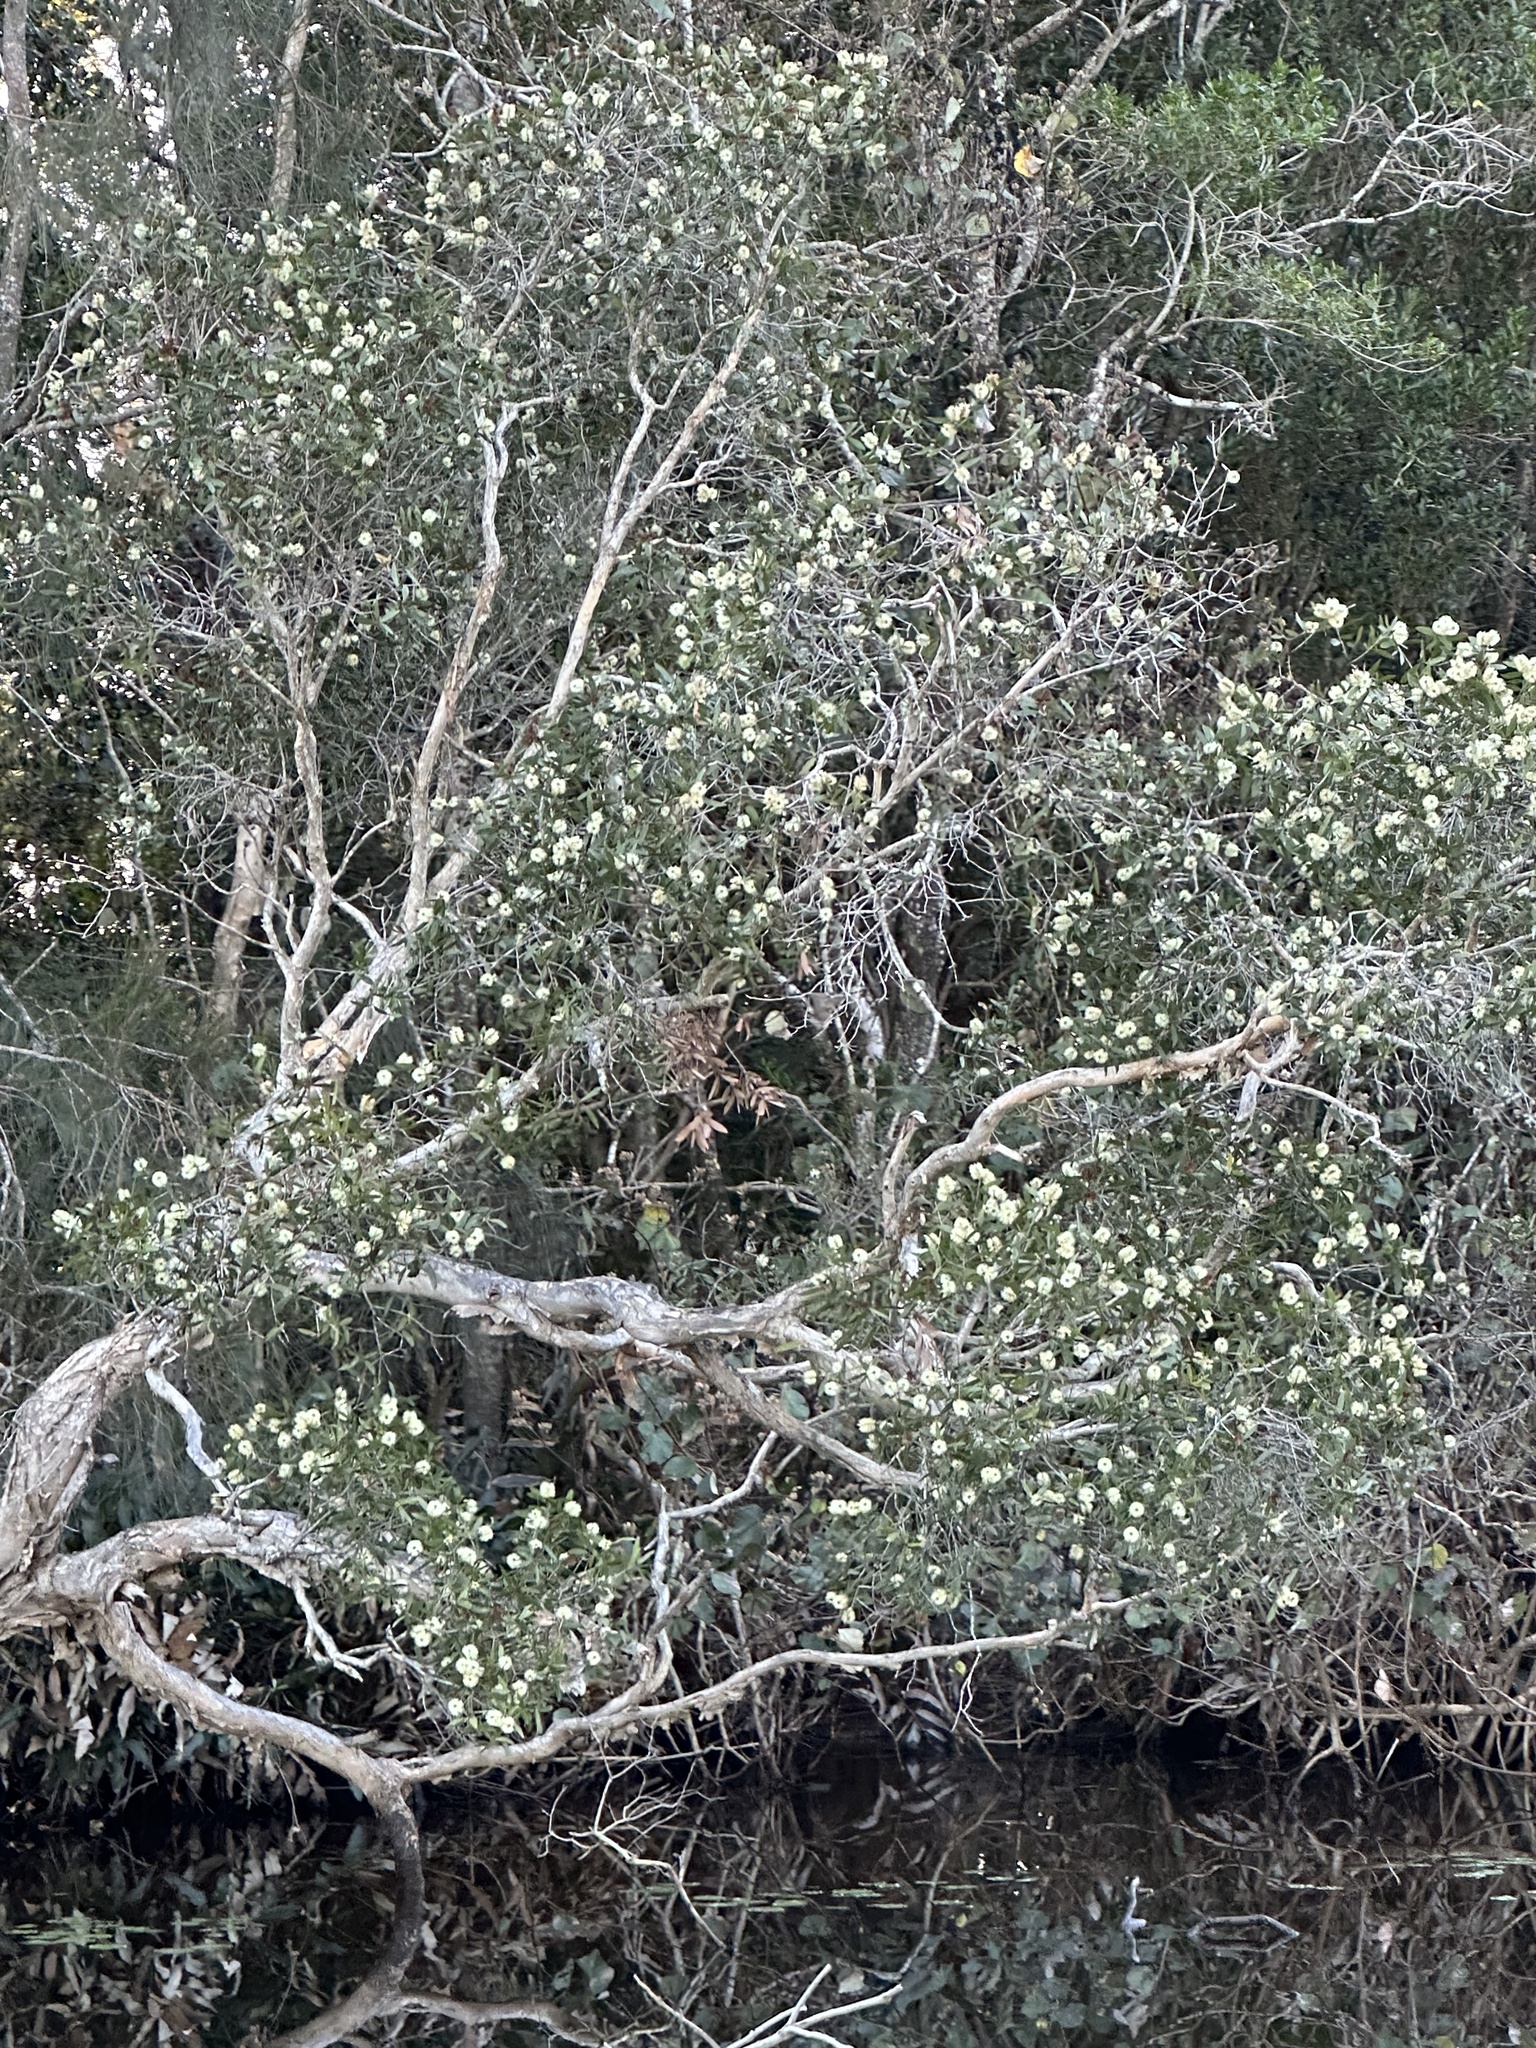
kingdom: Plantae
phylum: Tracheophyta
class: Magnoliopsida
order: Myrtales
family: Myrtaceae
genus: Melaleuca
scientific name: Melaleuca quinquenervia
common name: Punktree
